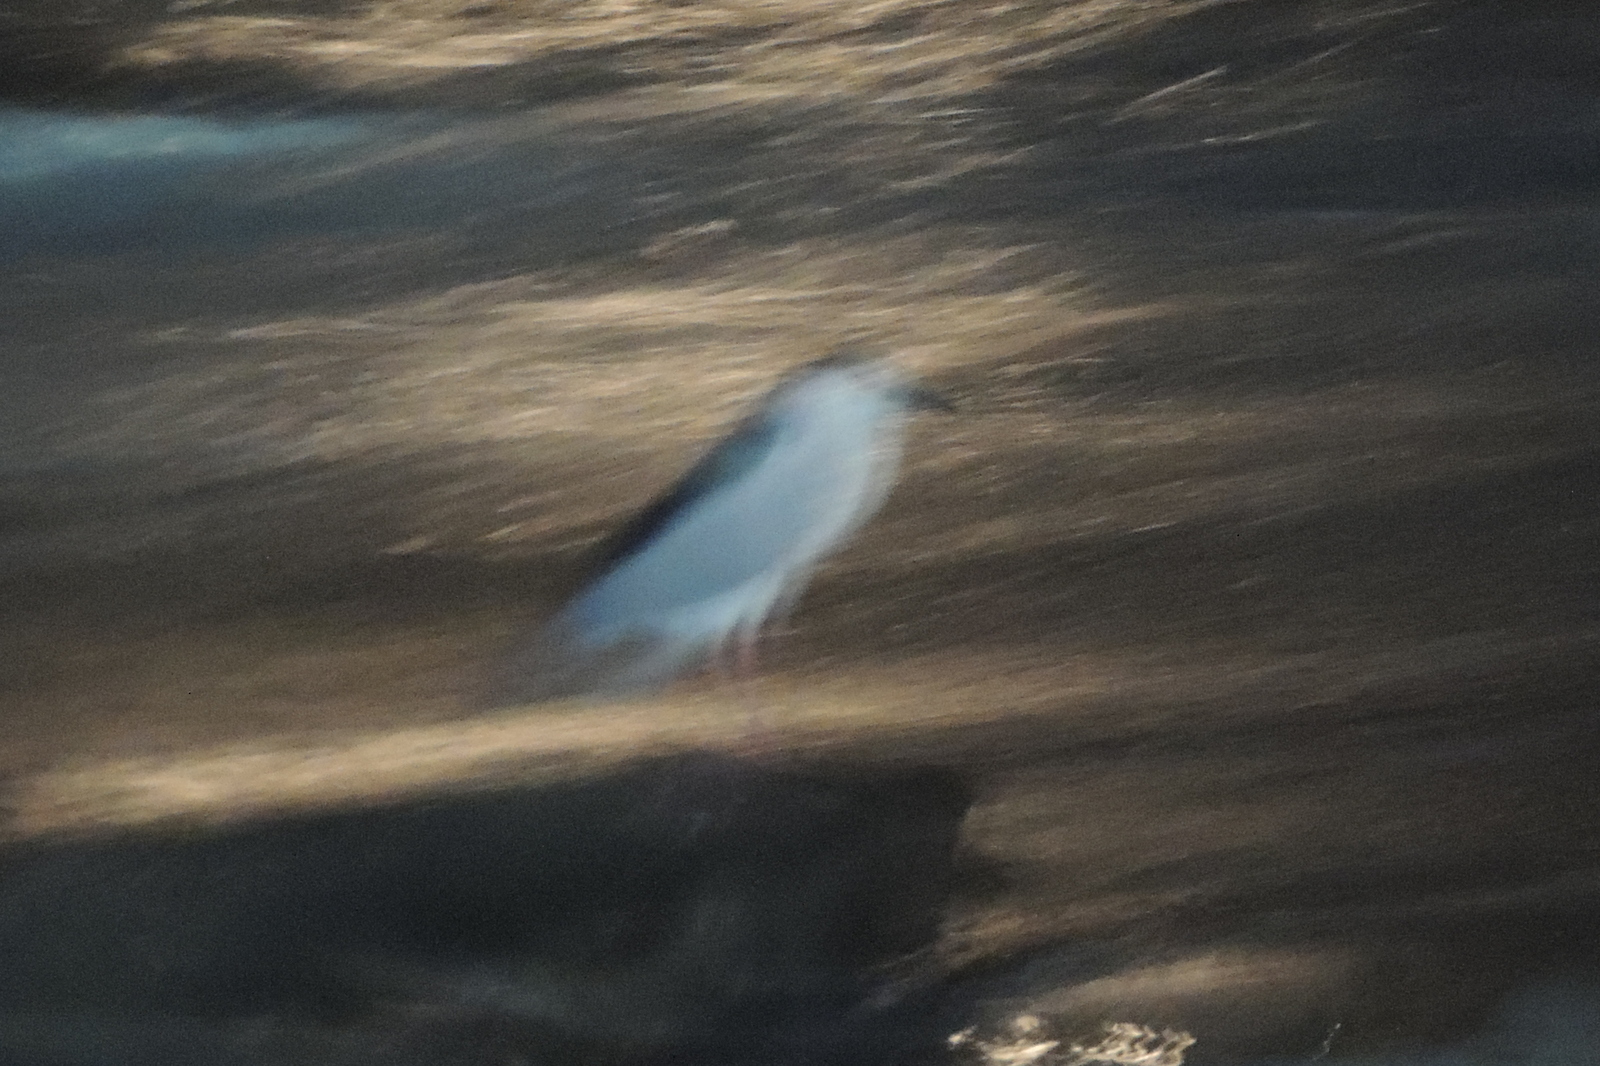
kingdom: Animalia
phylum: Chordata
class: Aves
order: Pelecaniformes
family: Ardeidae
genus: Nycticorax
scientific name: Nycticorax nycticorax
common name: Black-crowned night heron
